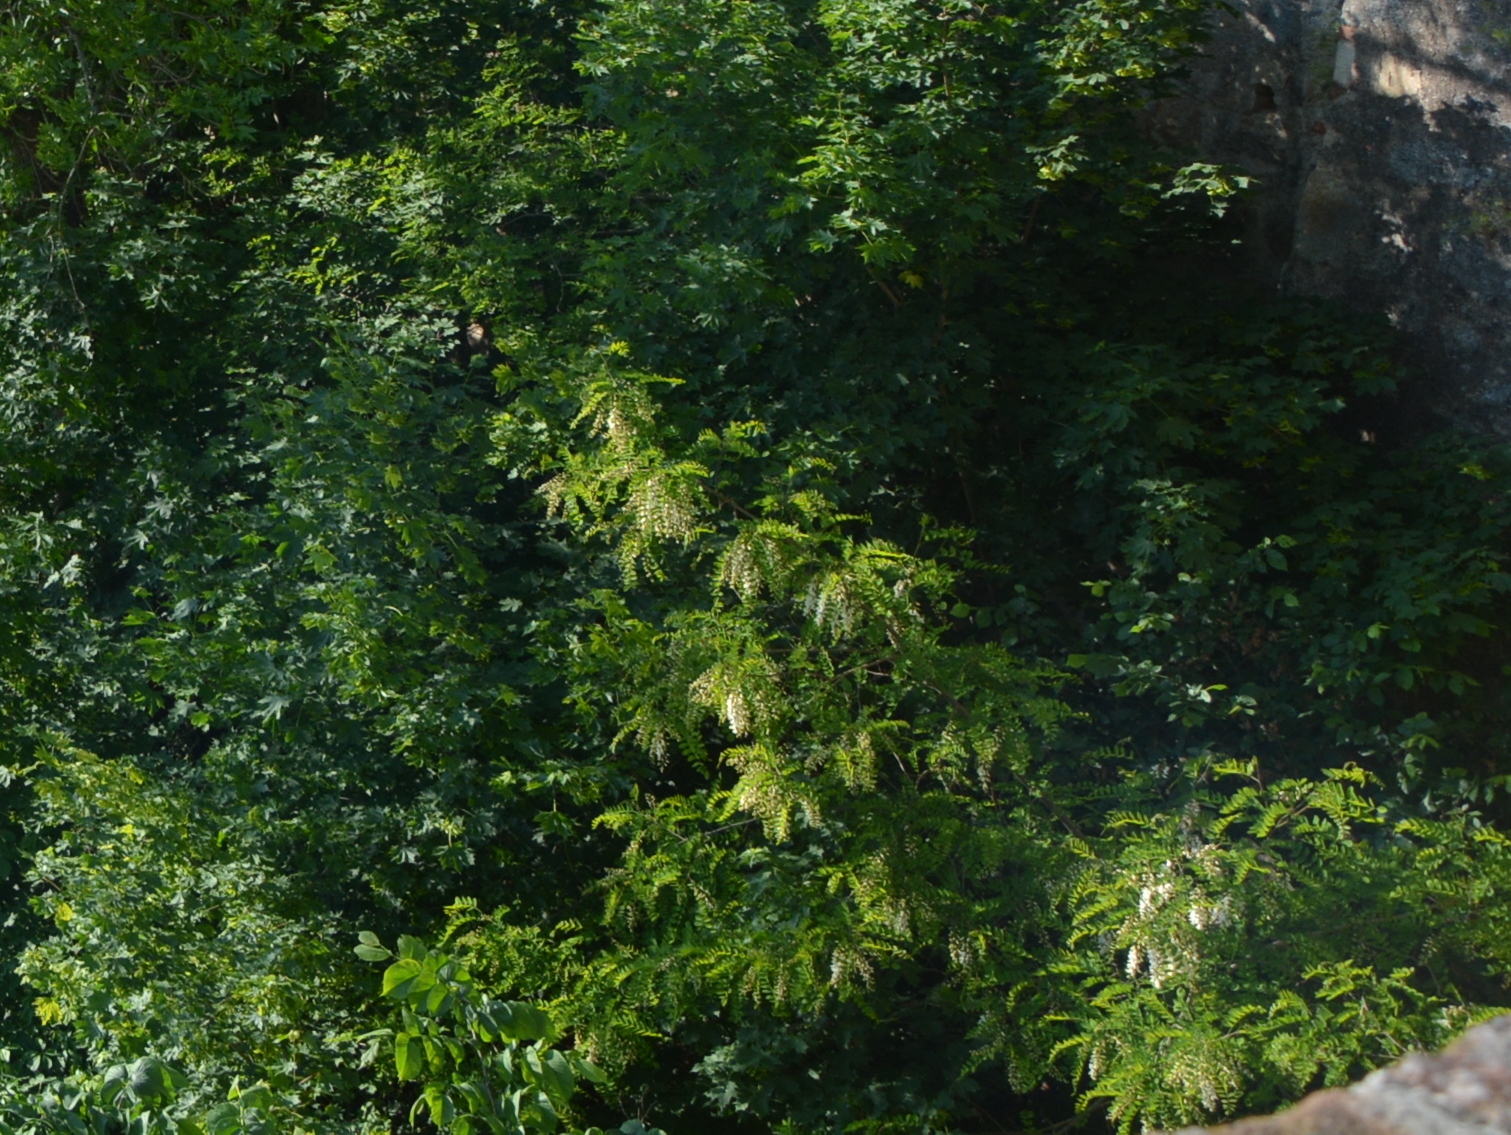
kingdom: Plantae
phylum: Tracheophyta
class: Magnoliopsida
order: Fabales
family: Fabaceae
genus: Robinia
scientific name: Robinia pseudoacacia
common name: Black locust
